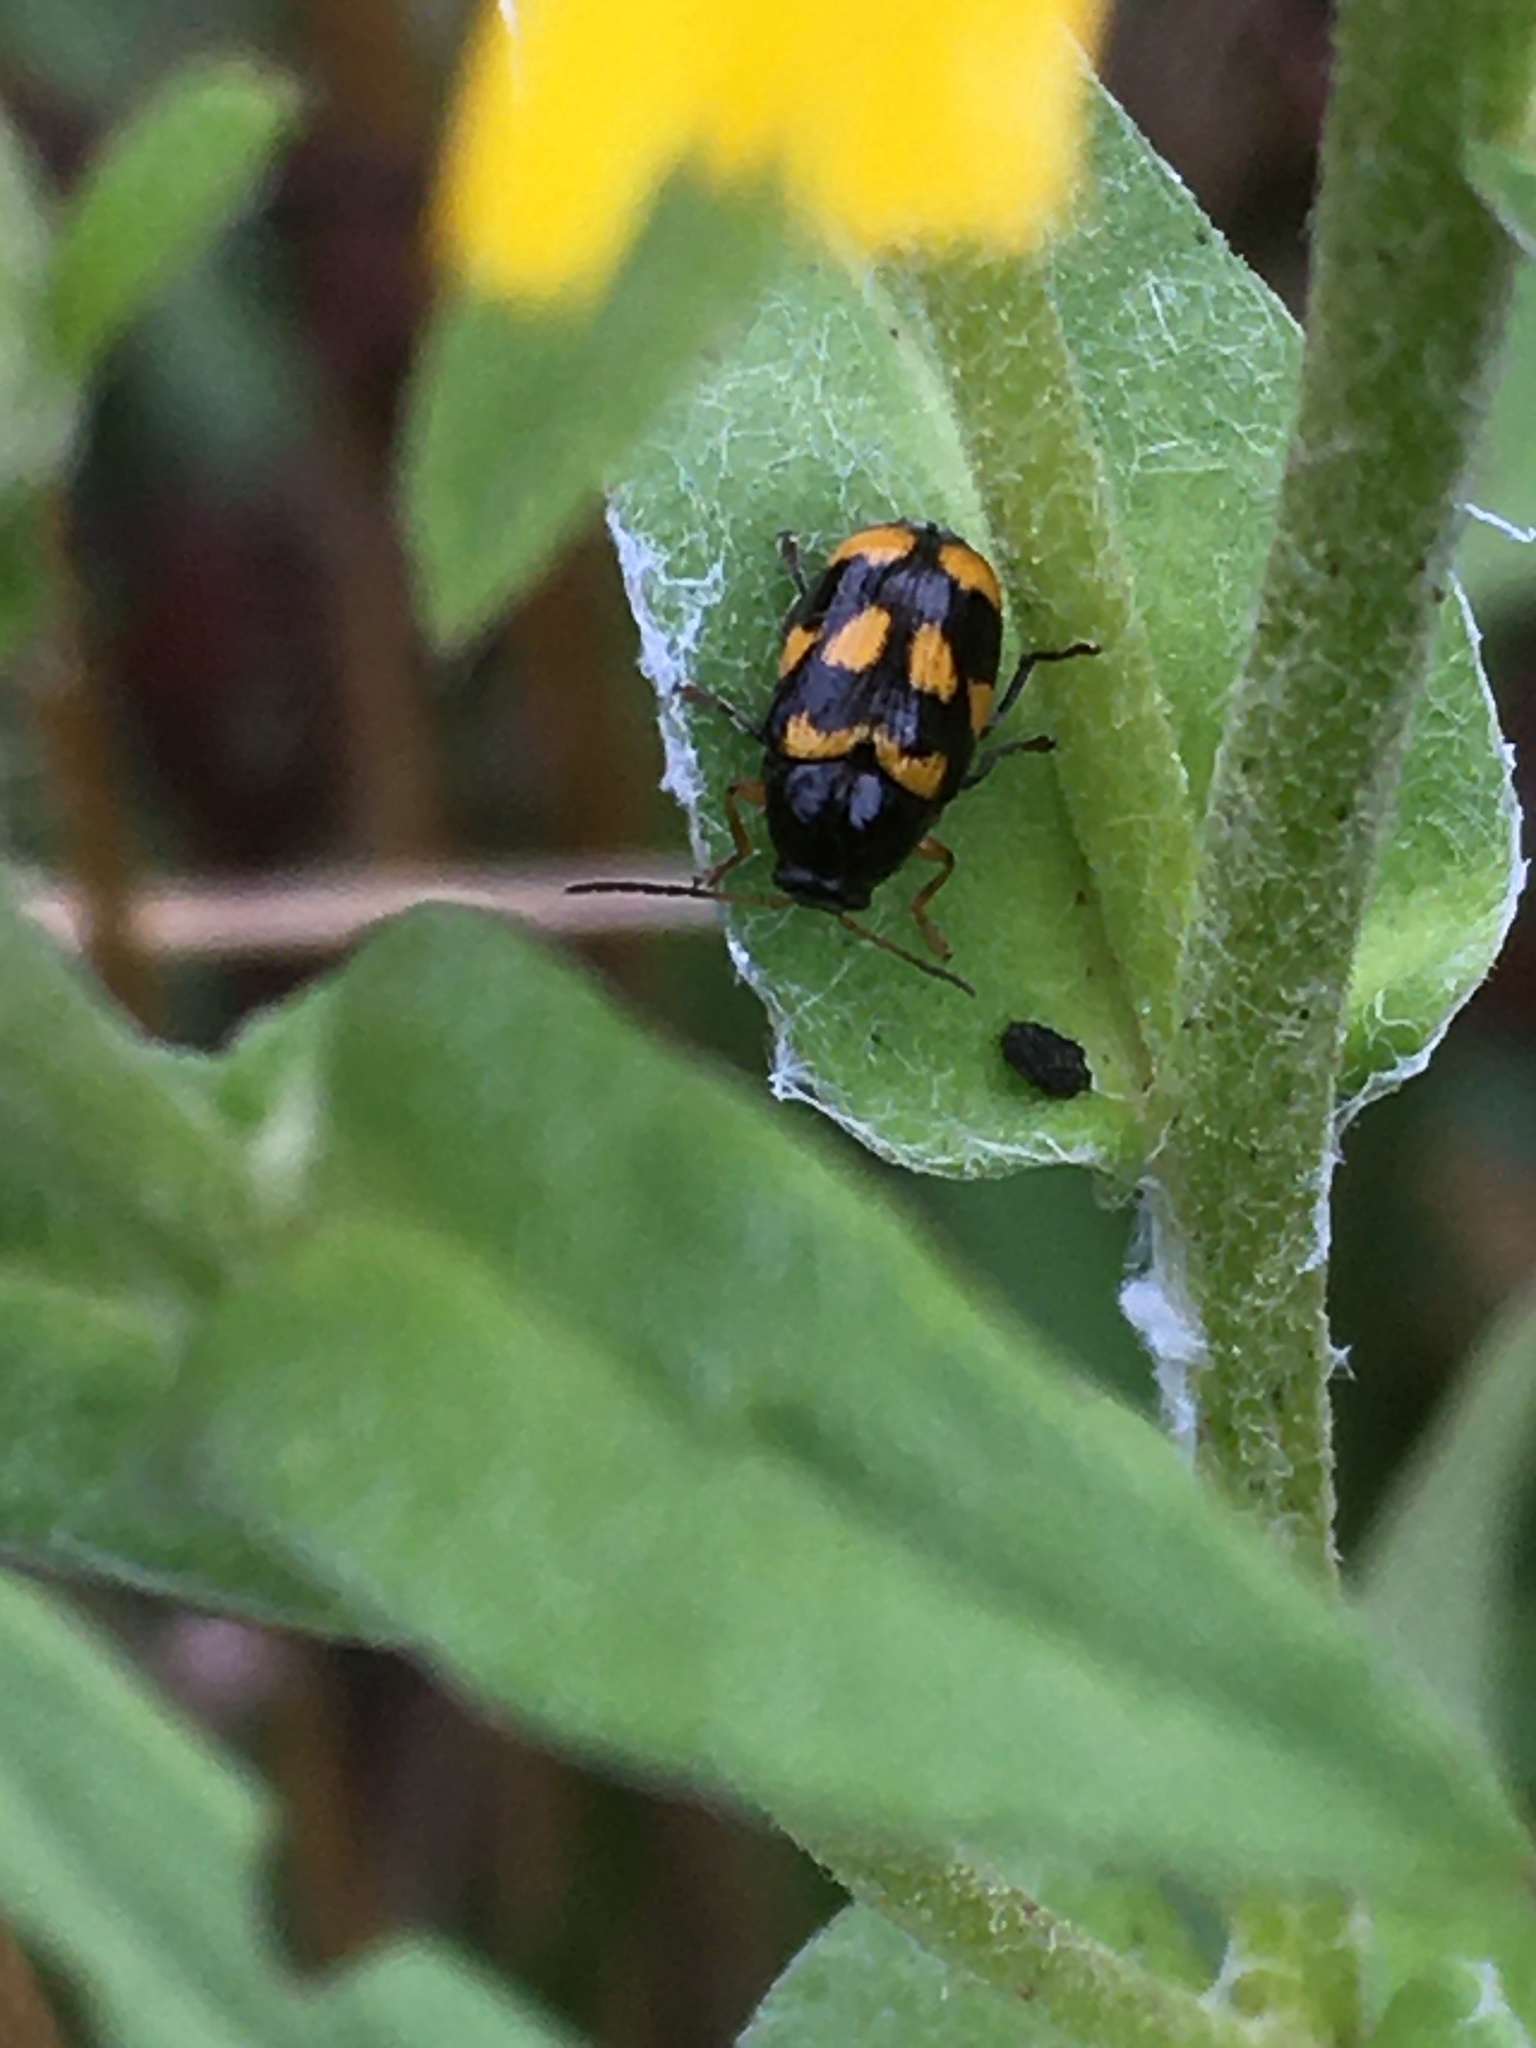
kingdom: Animalia
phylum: Arthropoda
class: Insecta
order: Coleoptera
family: Chrysomelidae
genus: Cryptocephalus
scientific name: Cryptocephalus anticus
